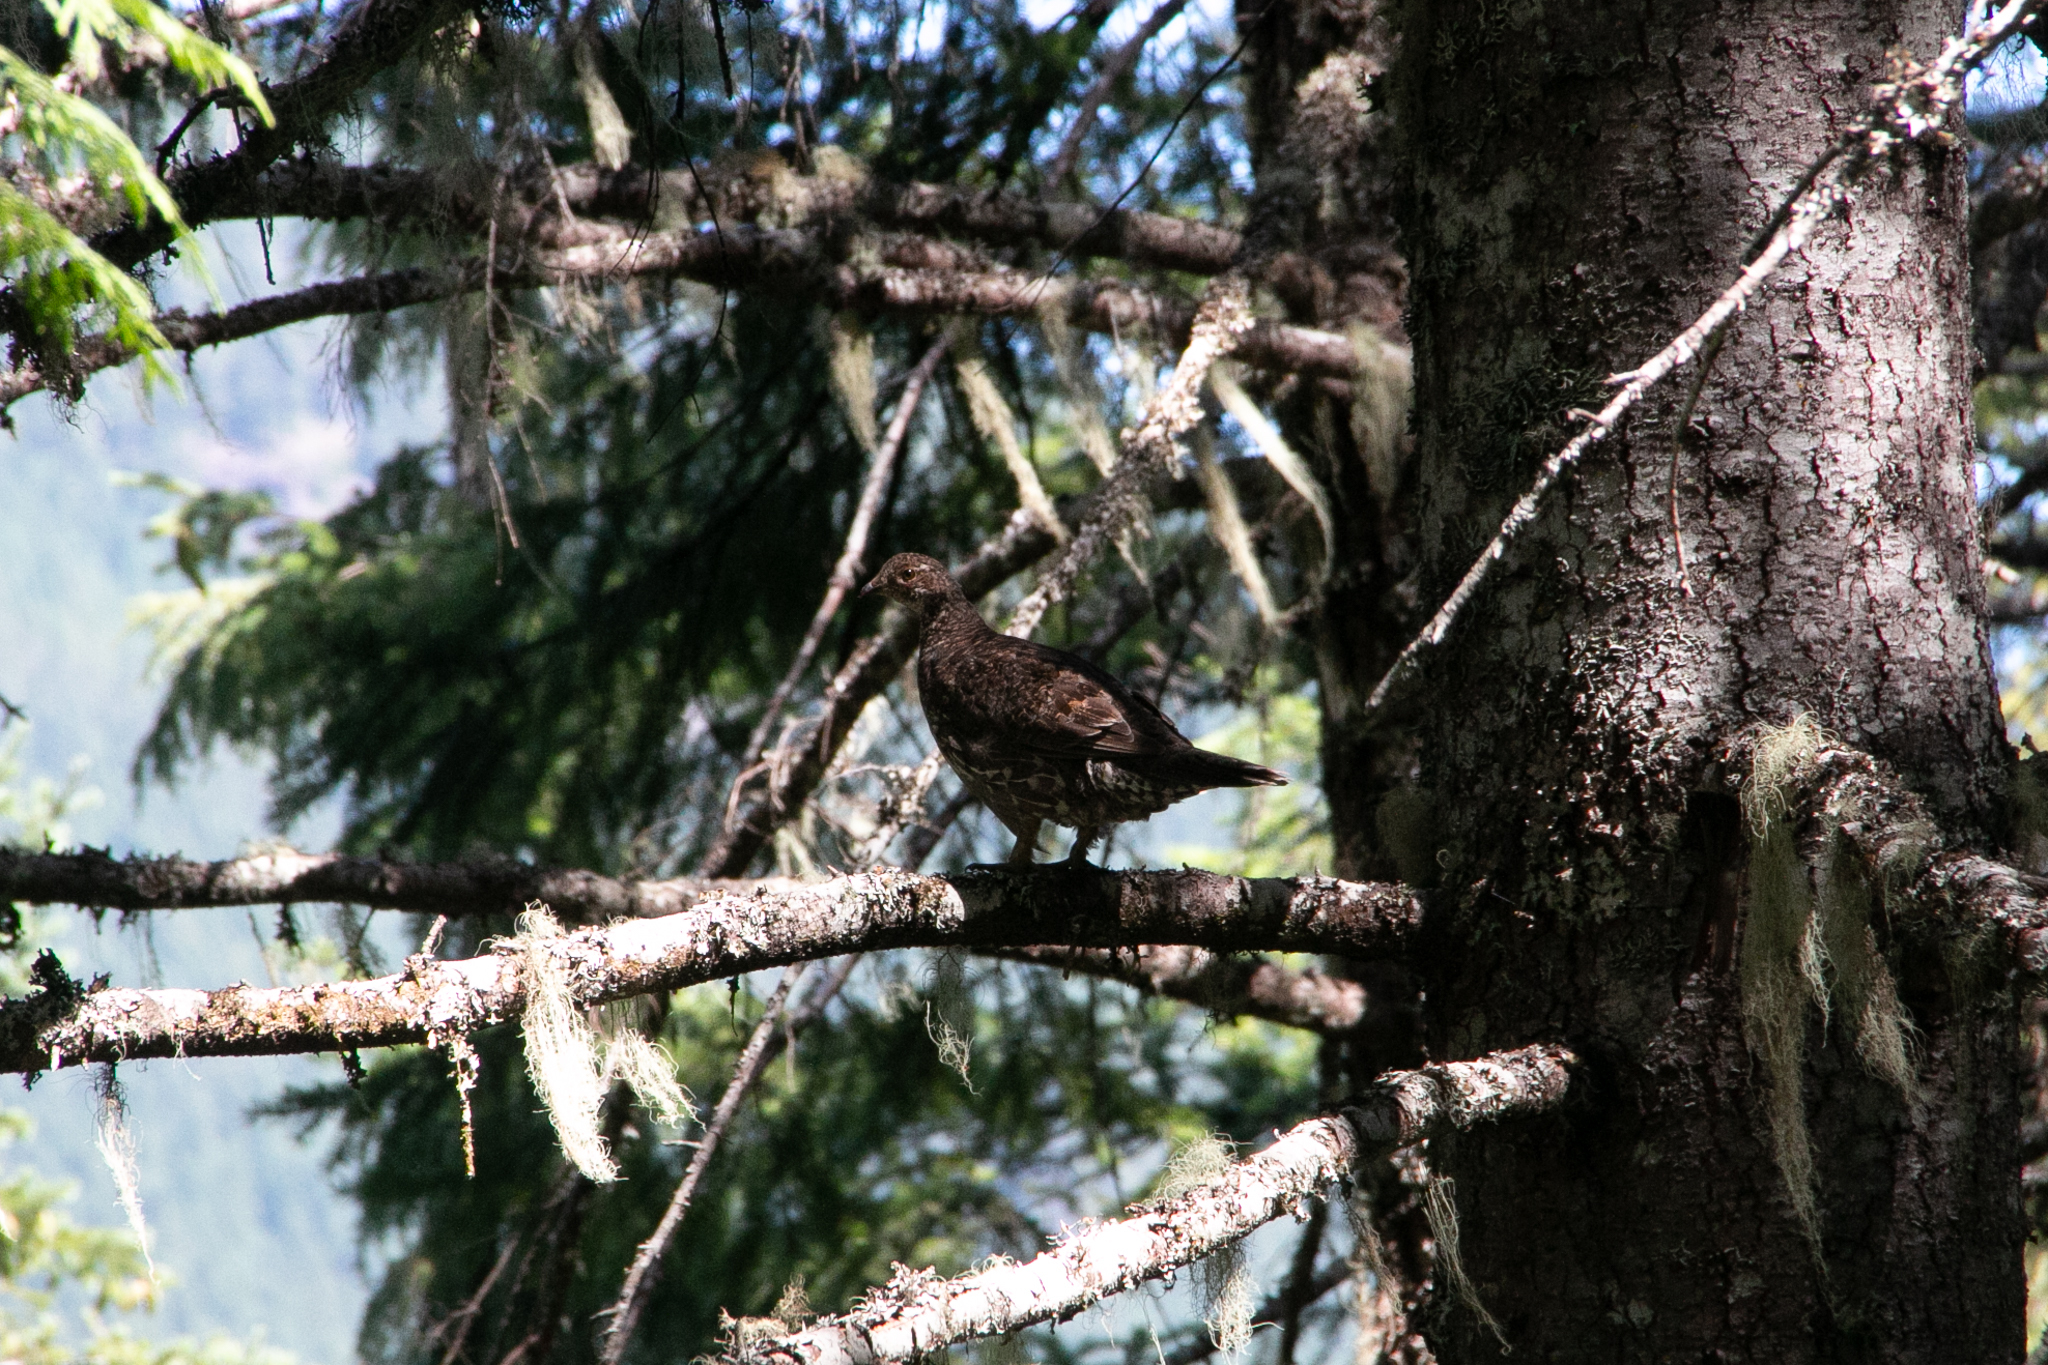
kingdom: Animalia
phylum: Chordata
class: Aves
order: Galliformes
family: Phasianidae
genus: Dendragapus
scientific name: Dendragapus fuliginosus
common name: Sooty grouse
